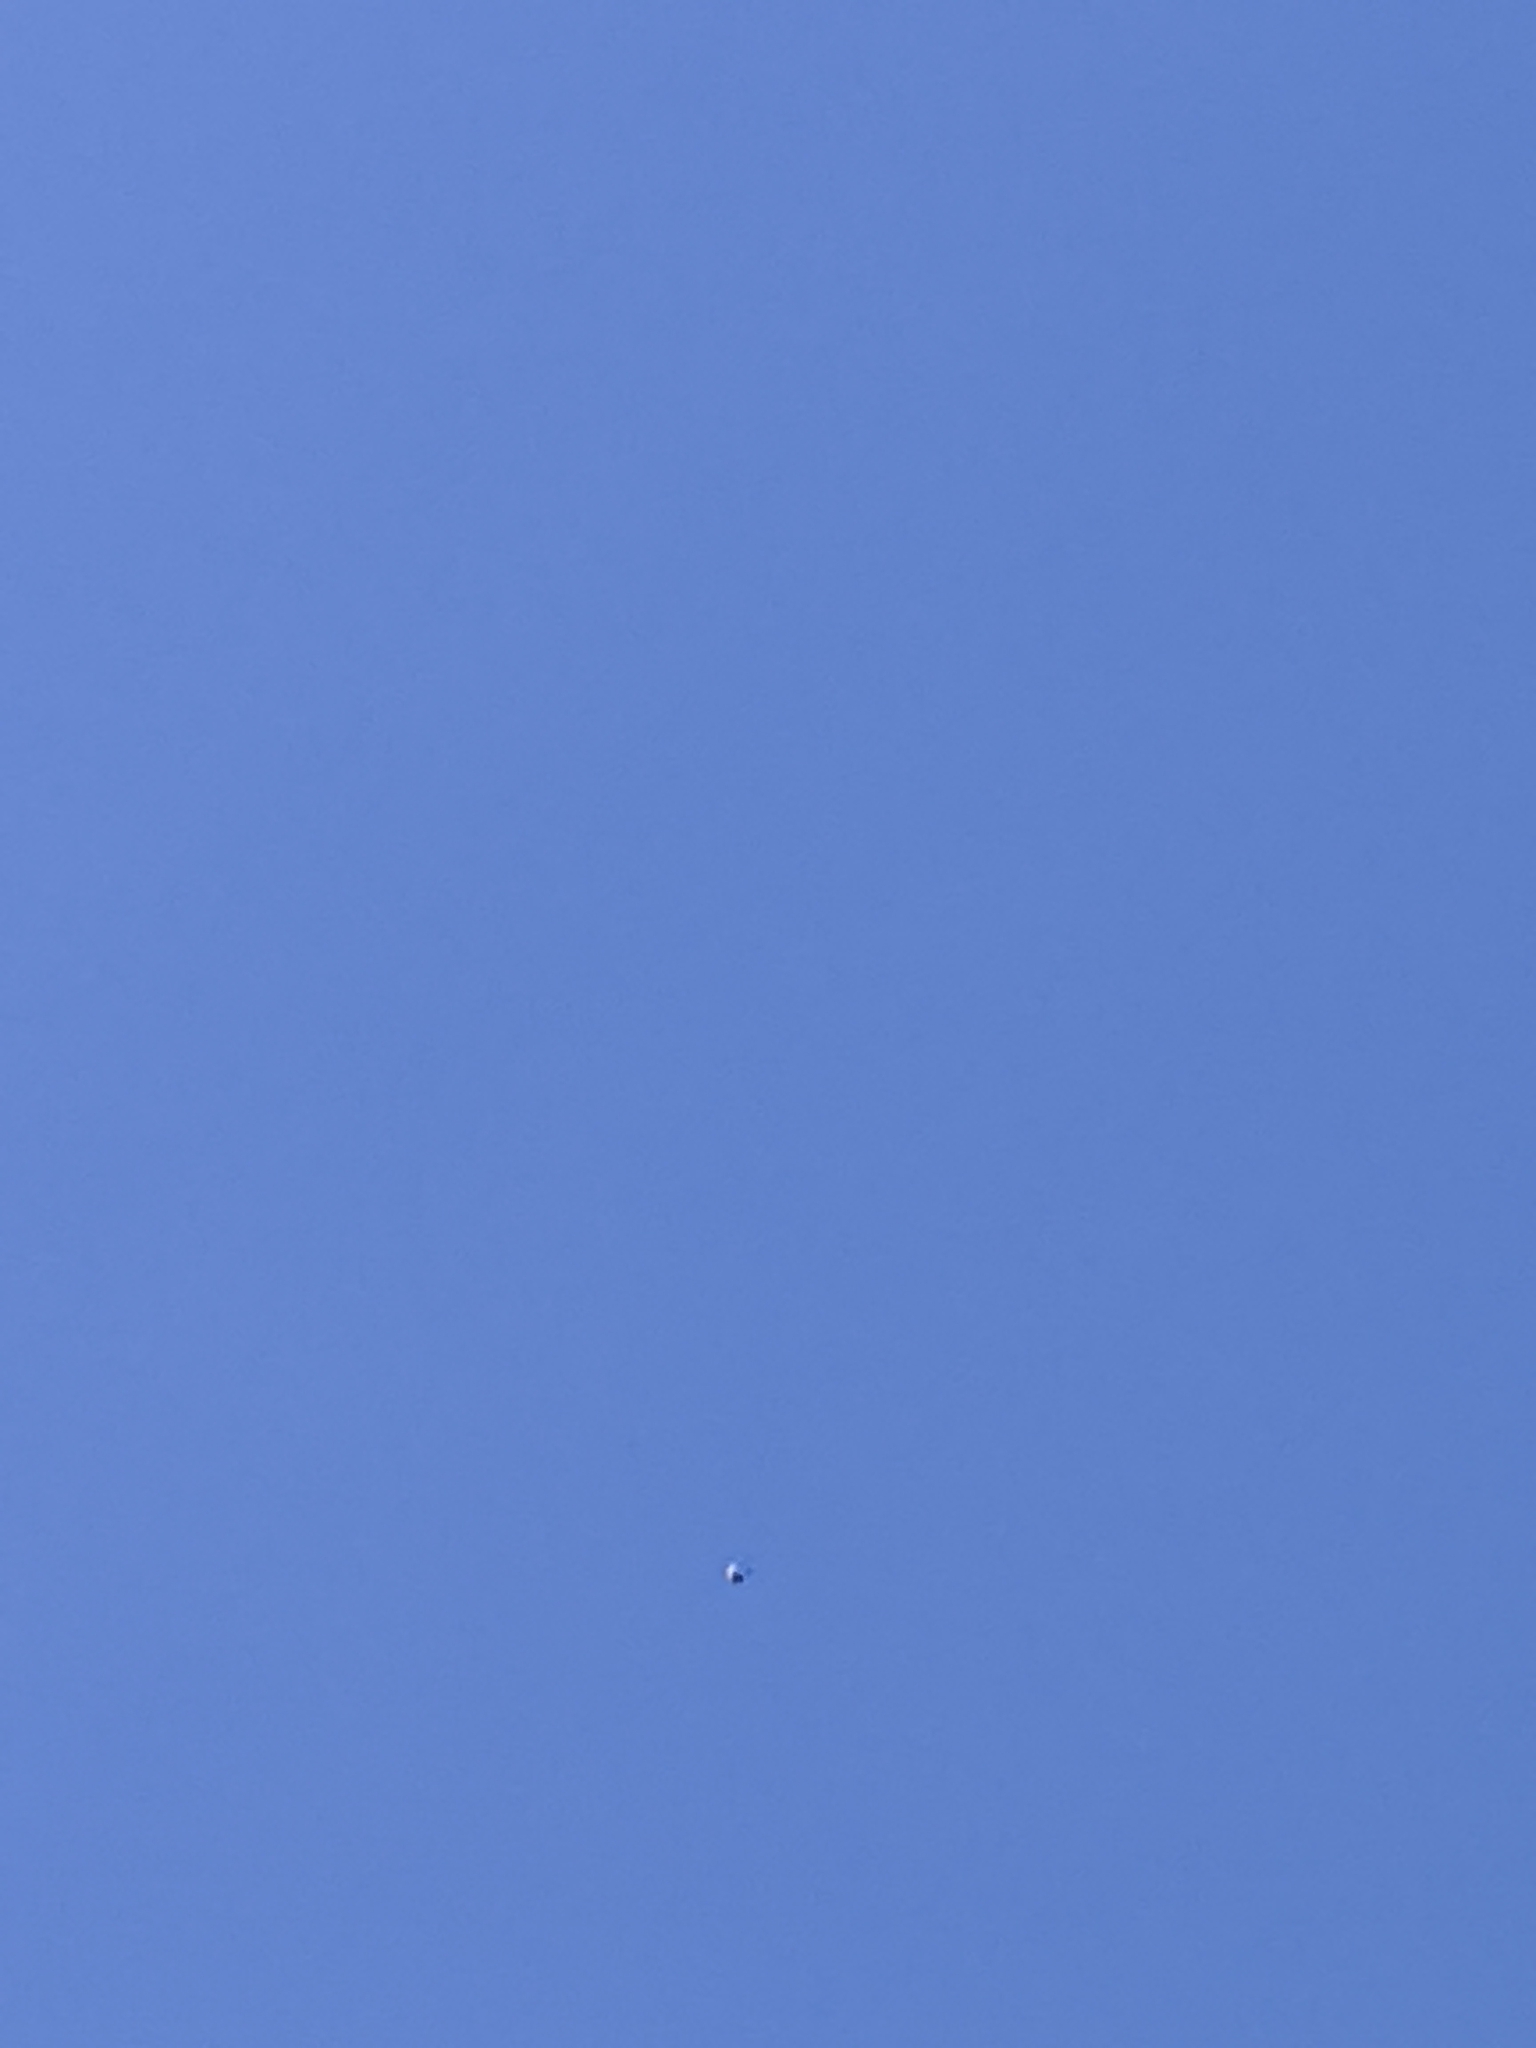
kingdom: Animalia
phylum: Chordata
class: Aves
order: Caprimulgiformes
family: Caprimulgidae
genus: Chordeiles
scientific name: Chordeiles minor
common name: Common nighthawk
